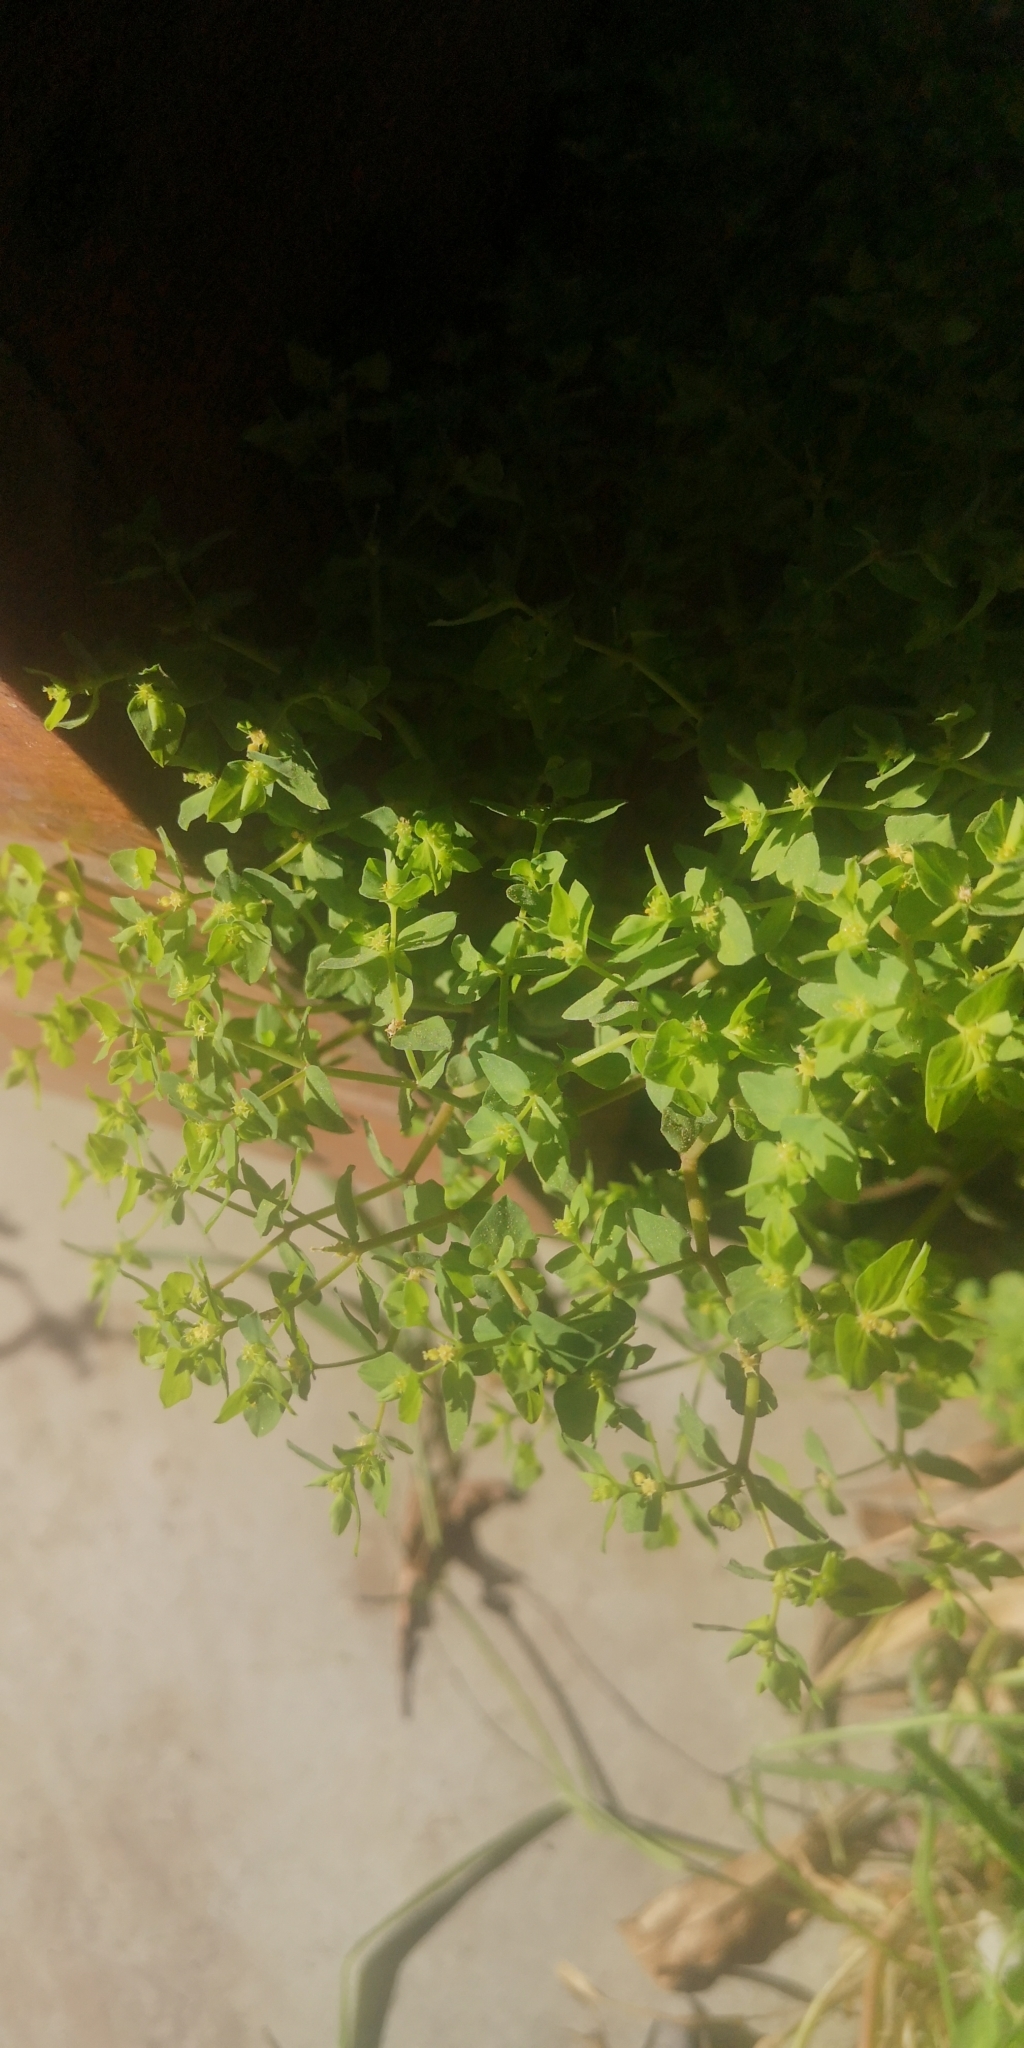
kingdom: Plantae
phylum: Tracheophyta
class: Magnoliopsida
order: Malpighiales
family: Euphorbiaceae
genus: Euphorbia
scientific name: Euphorbia peplus
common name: Petty spurge
